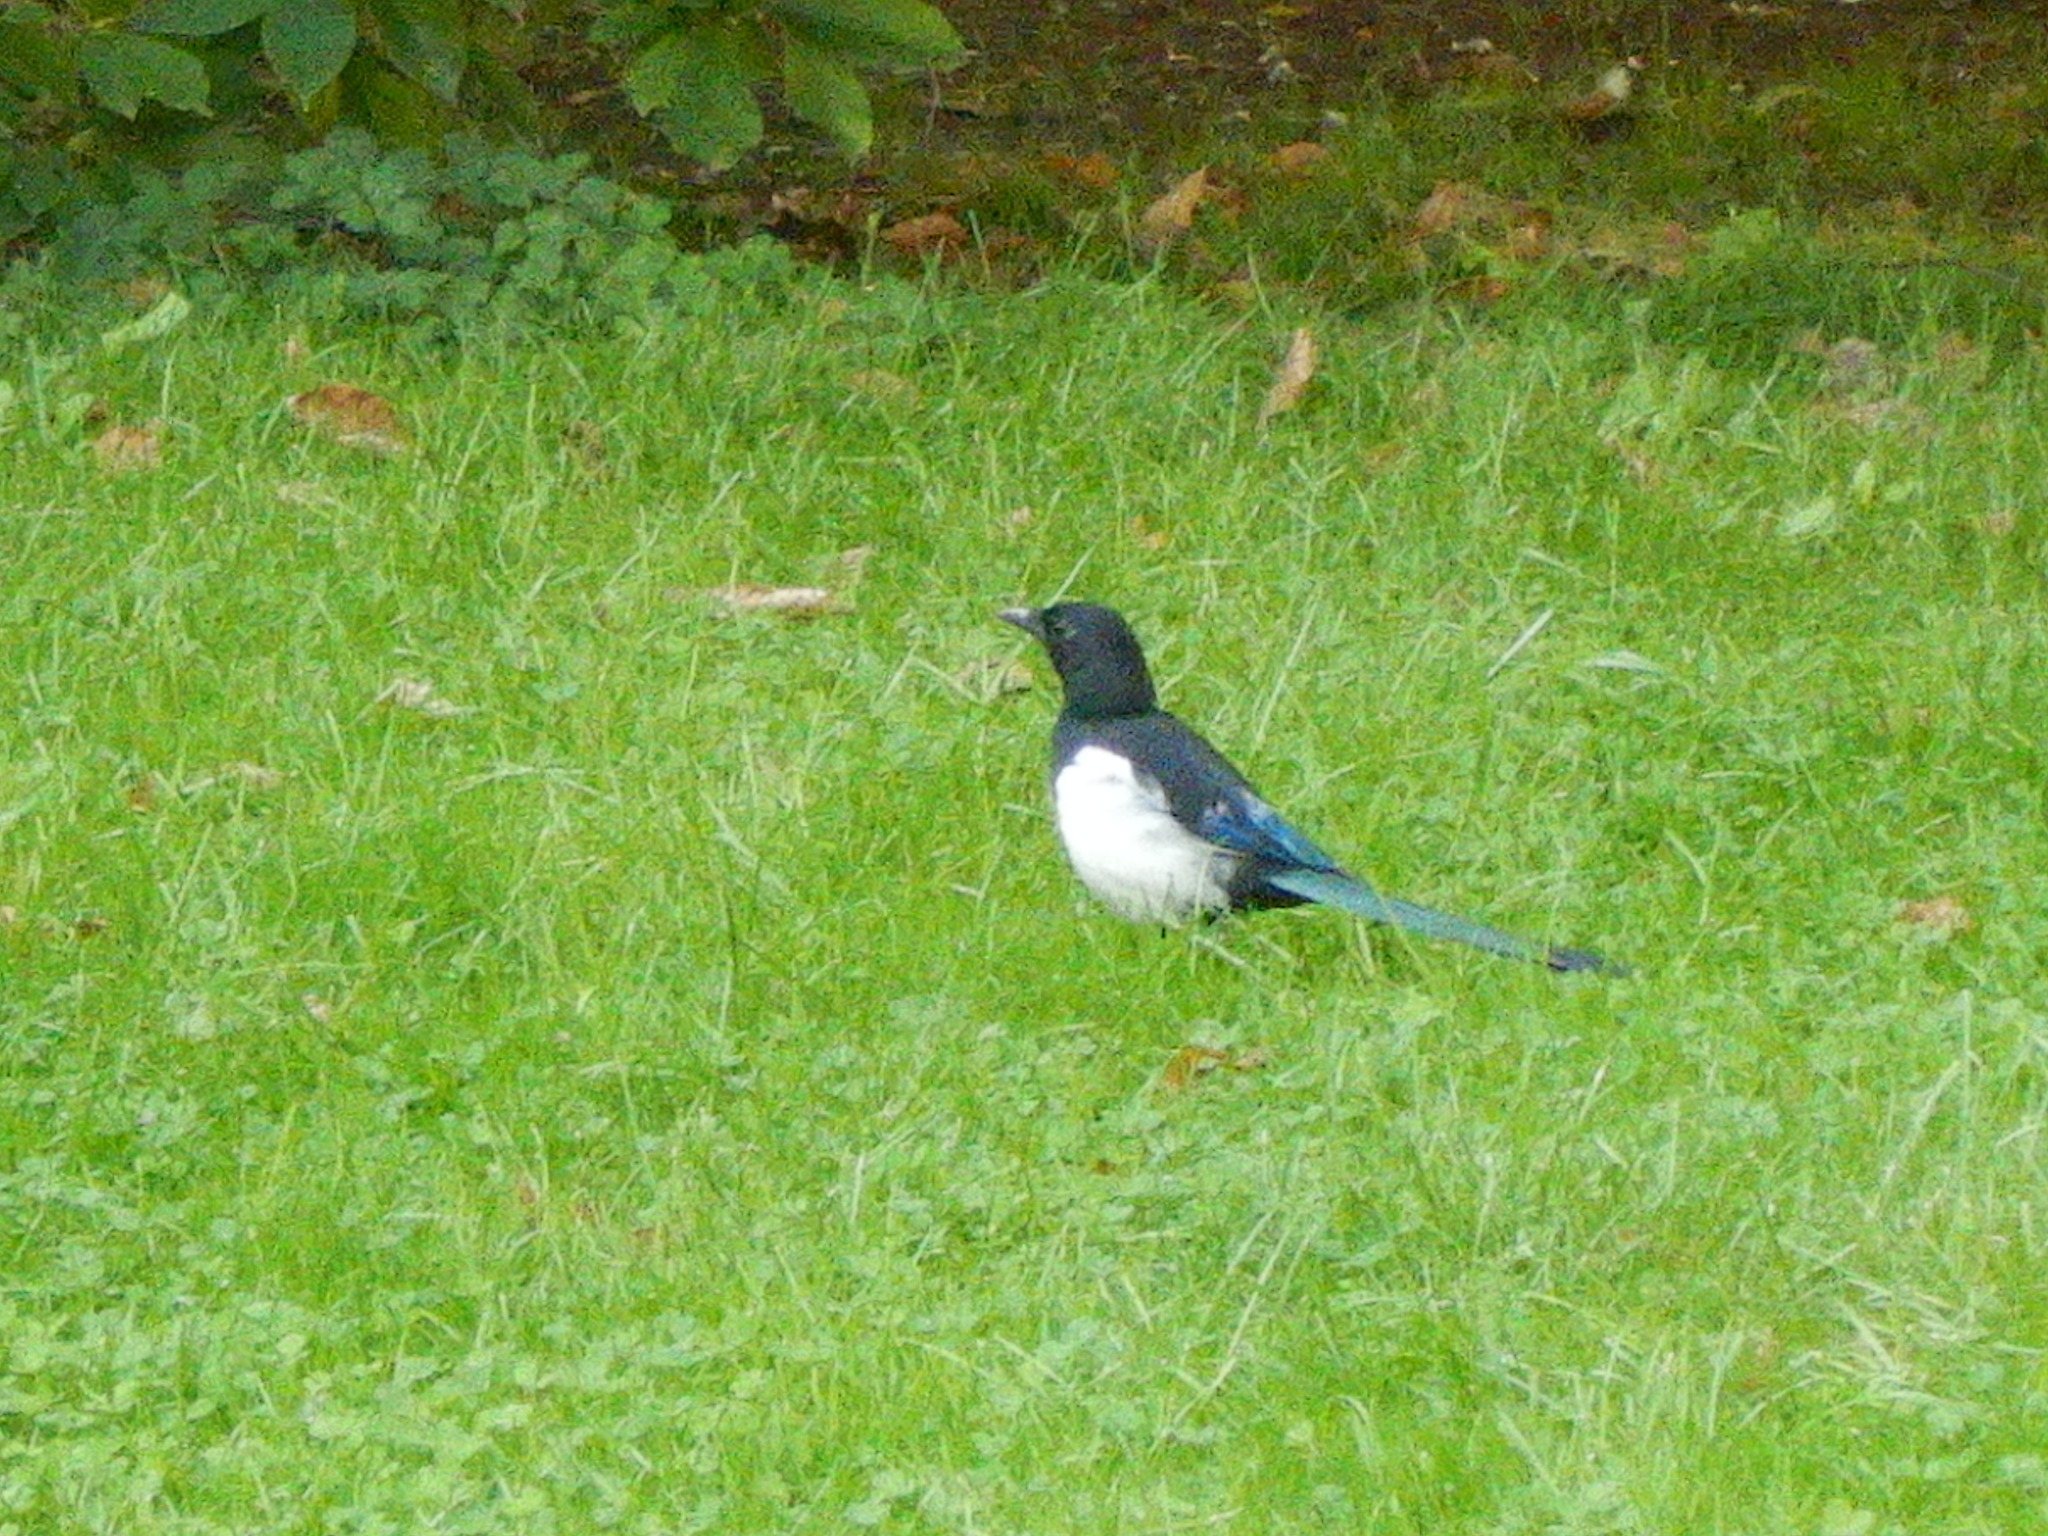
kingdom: Animalia
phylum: Chordata
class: Aves
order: Passeriformes
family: Corvidae
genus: Pica
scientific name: Pica pica
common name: Eurasian magpie
